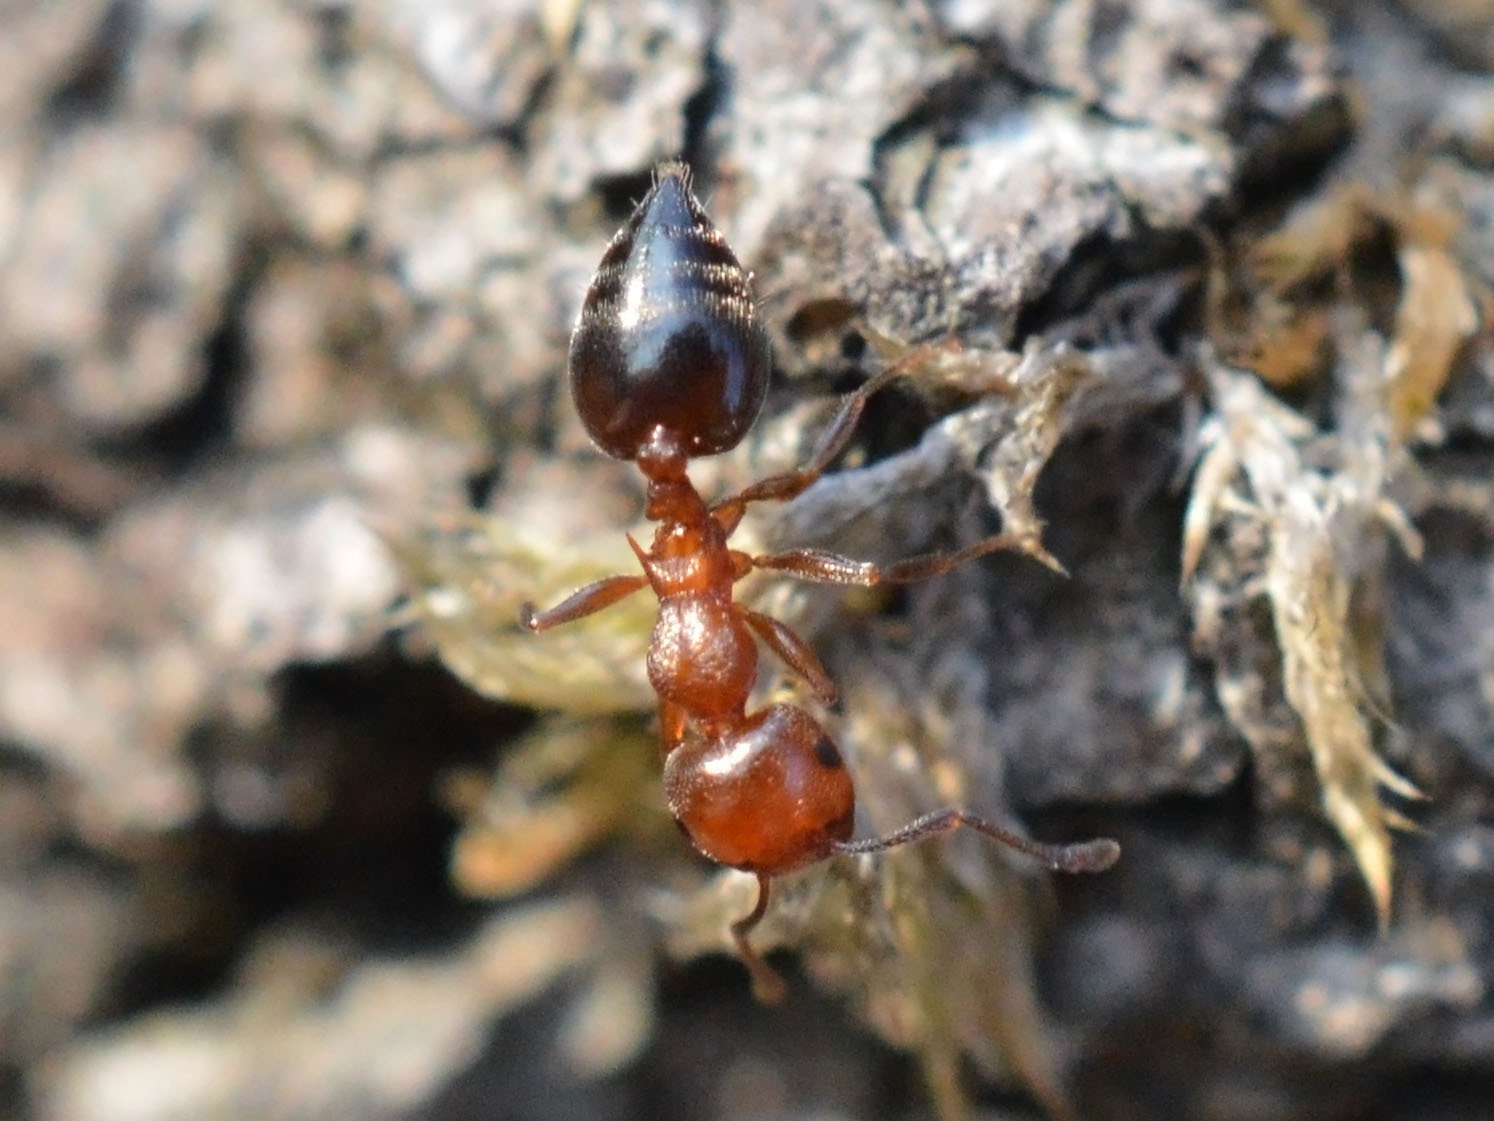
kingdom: Animalia
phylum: Arthropoda
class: Insecta
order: Hymenoptera
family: Formicidae
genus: Crematogaster
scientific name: Crematogaster schmidti
